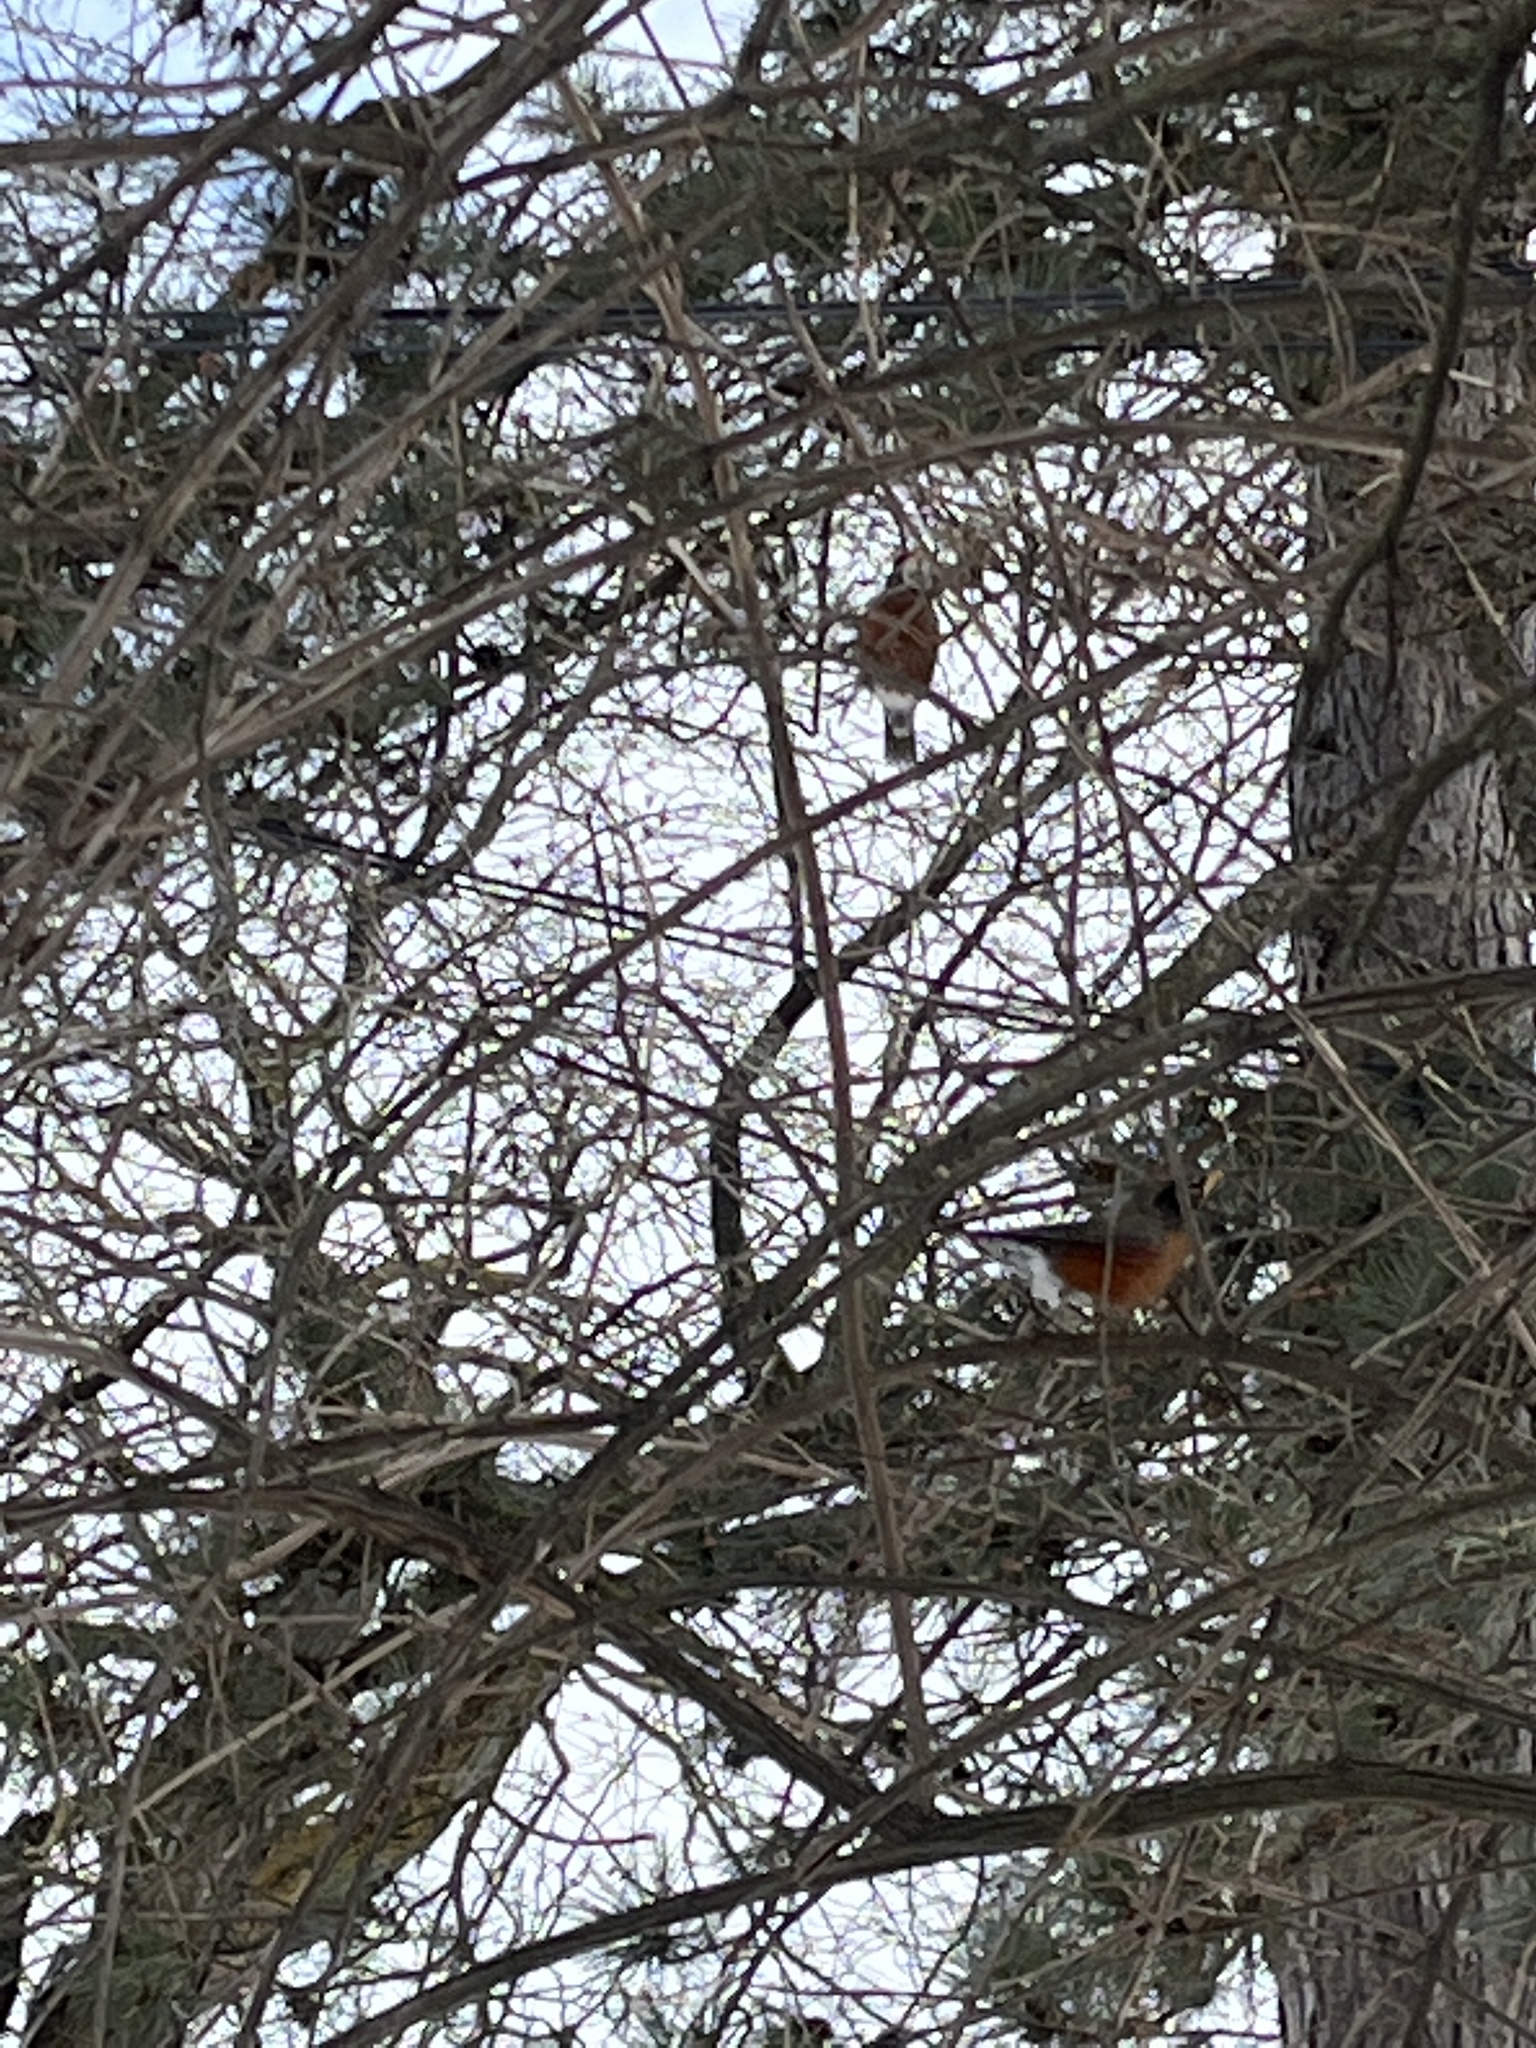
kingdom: Animalia
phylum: Chordata
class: Aves
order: Passeriformes
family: Turdidae
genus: Turdus
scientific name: Turdus migratorius
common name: American robin
